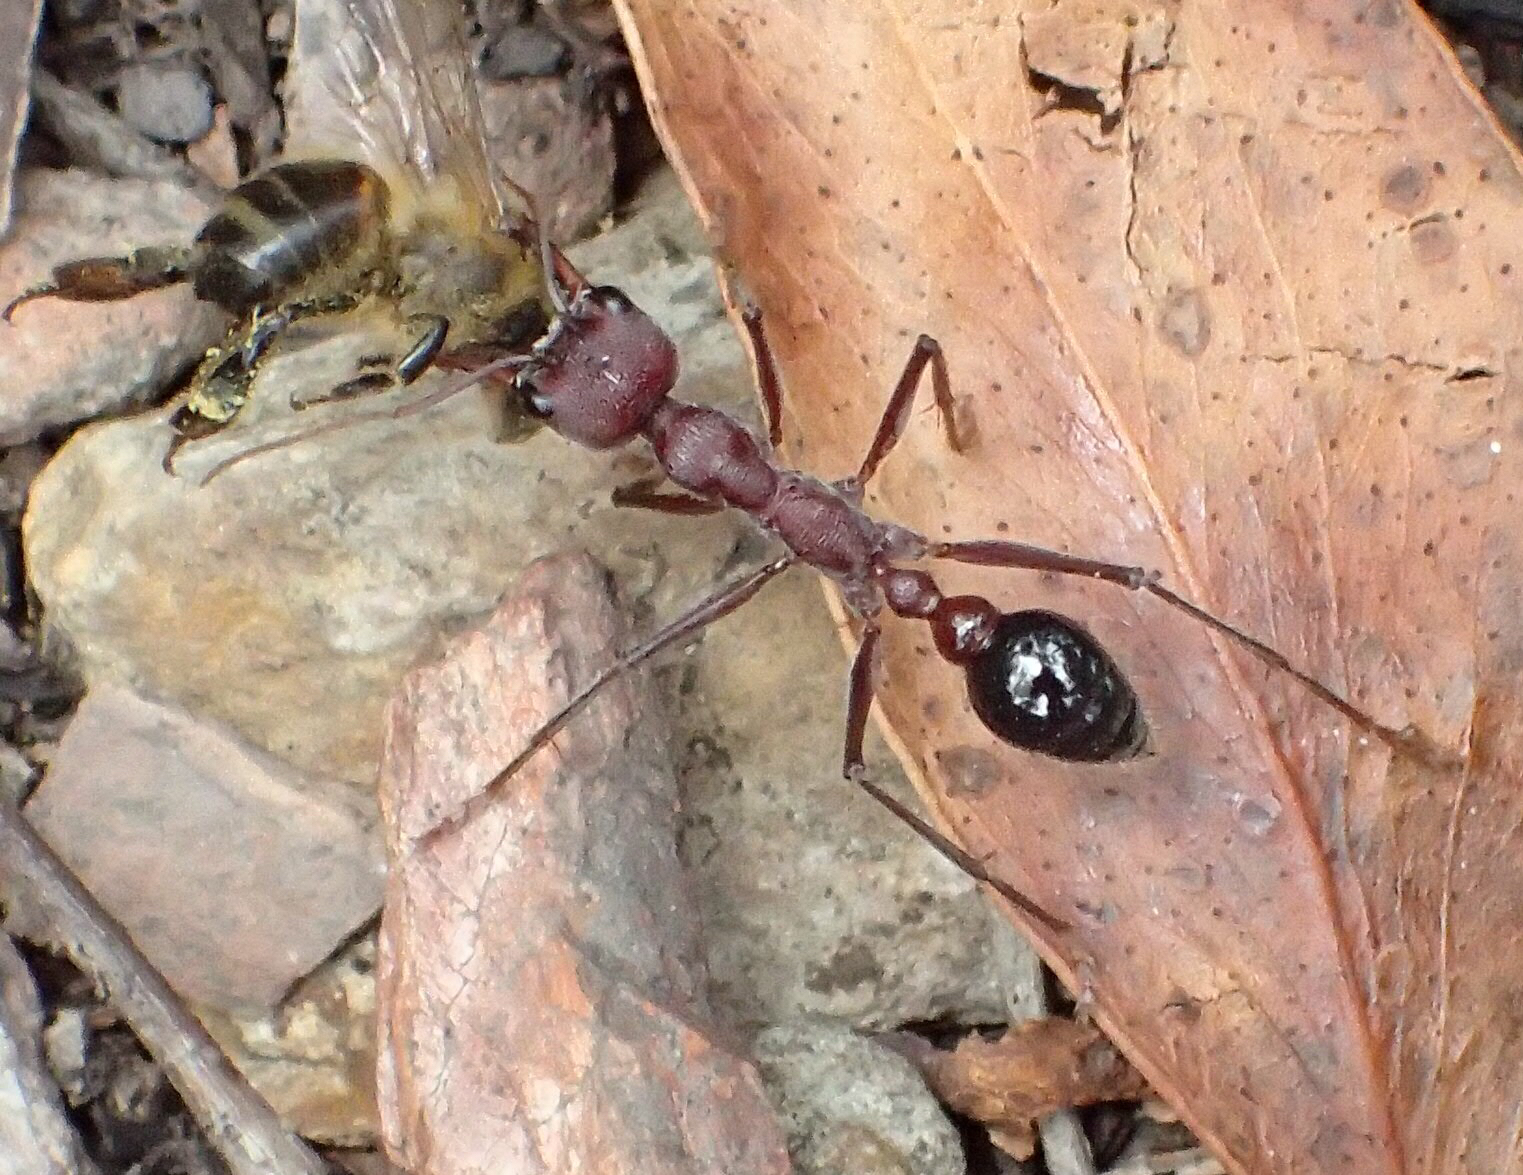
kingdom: Animalia
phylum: Arthropoda
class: Insecta
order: Hymenoptera
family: Formicidae
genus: Myrmecia
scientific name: Myrmecia simillima
